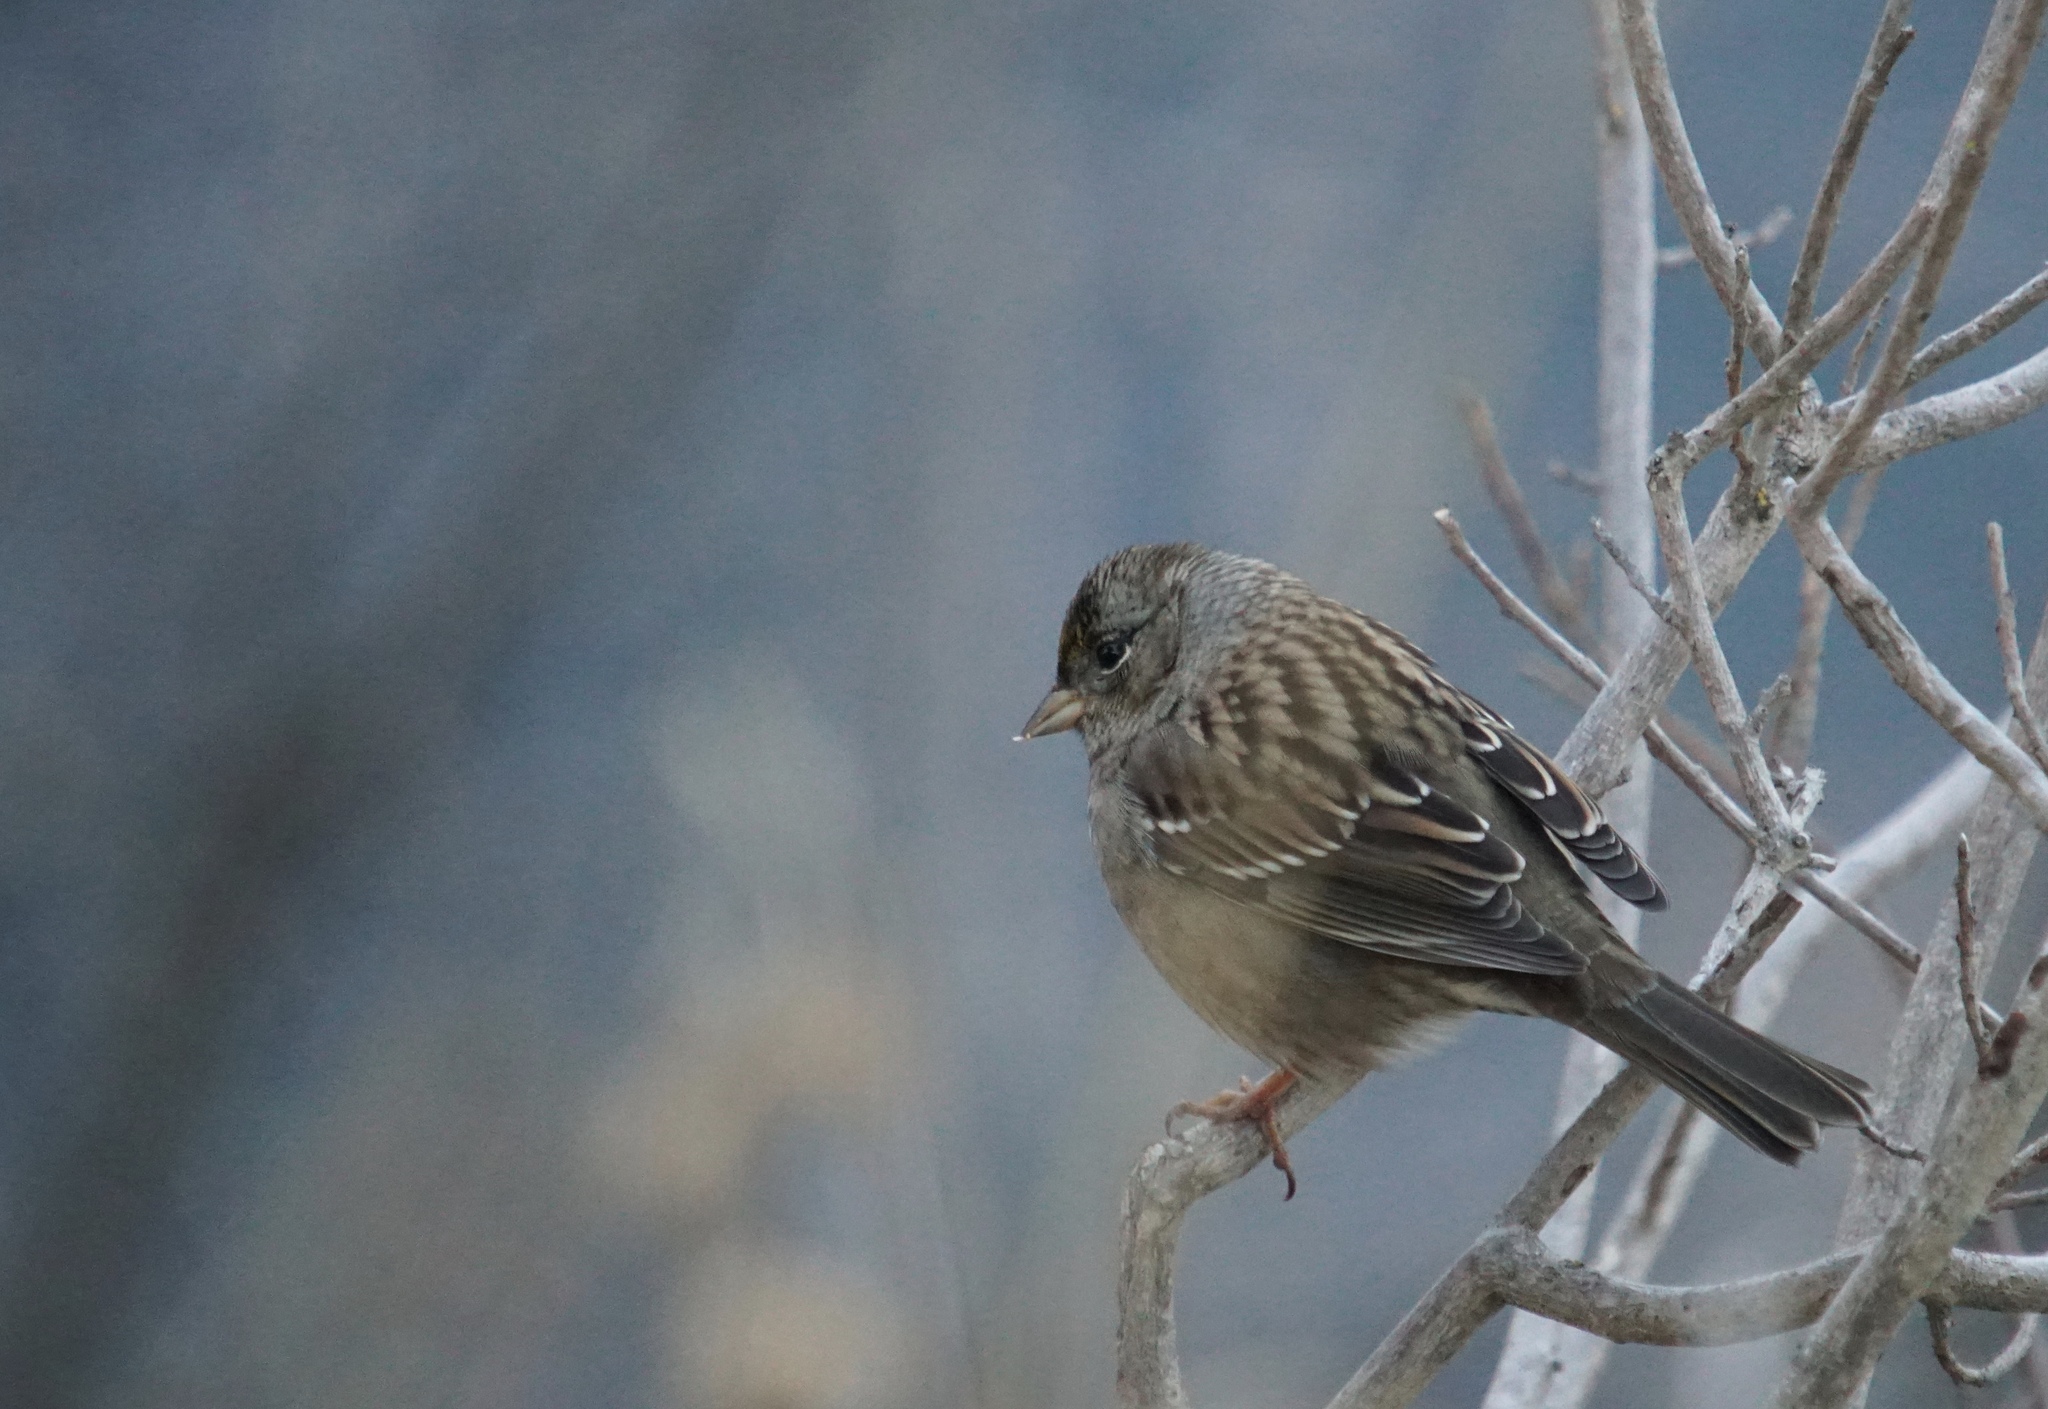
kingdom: Animalia
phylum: Chordata
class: Aves
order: Passeriformes
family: Passerellidae
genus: Zonotrichia
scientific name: Zonotrichia atricapilla
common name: Golden-crowned sparrow
